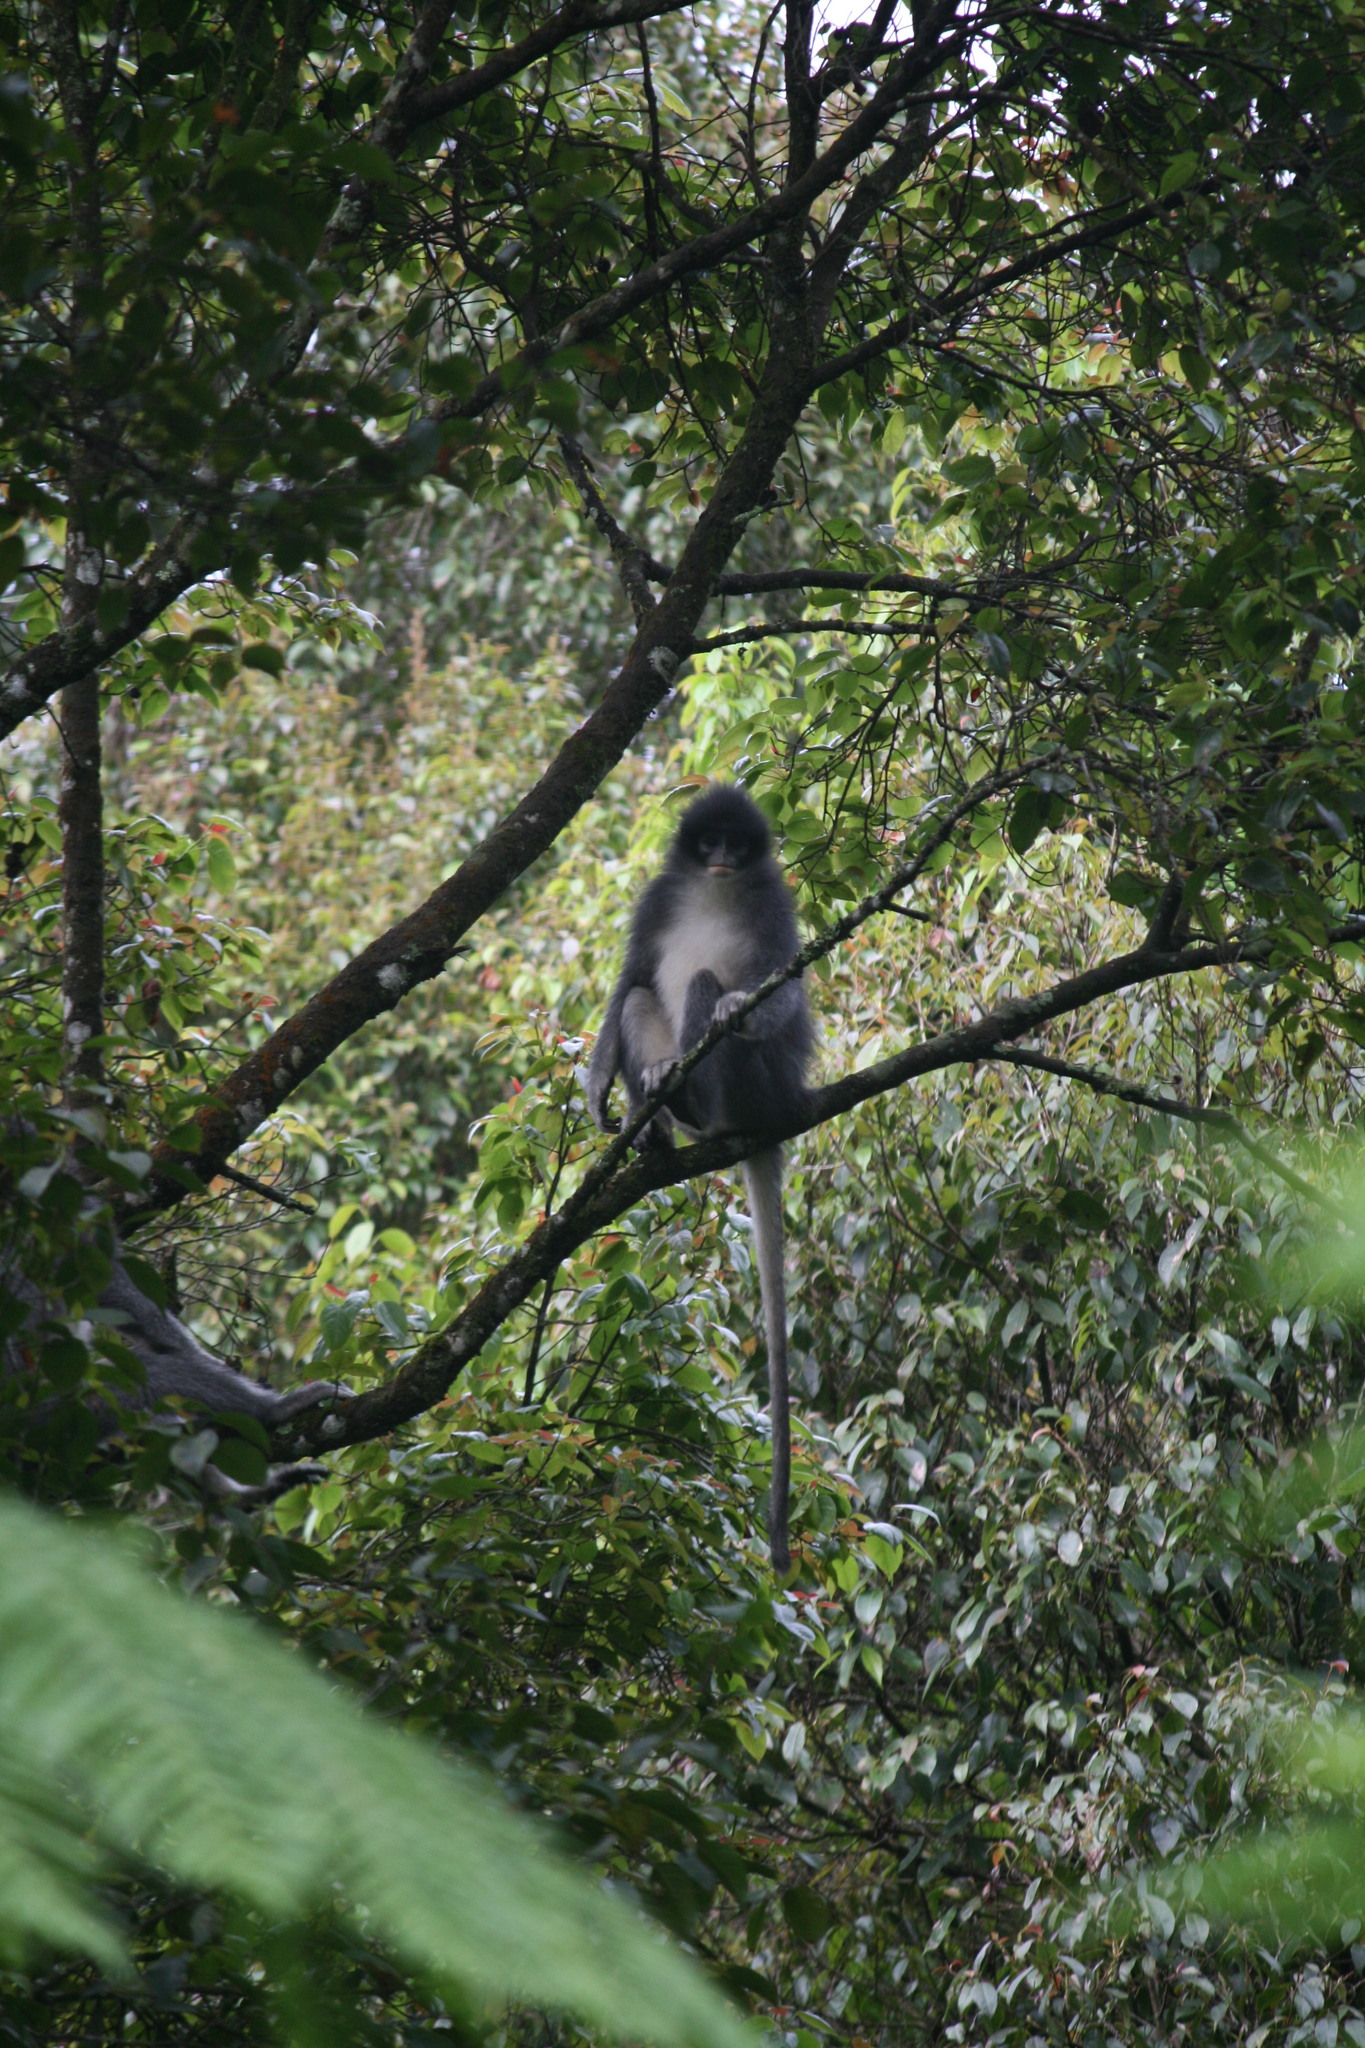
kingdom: Animalia
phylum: Chordata
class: Mammalia
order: Primates
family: Cercopithecidae
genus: Presbytis
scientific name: Presbytis comata
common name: Javan surili
